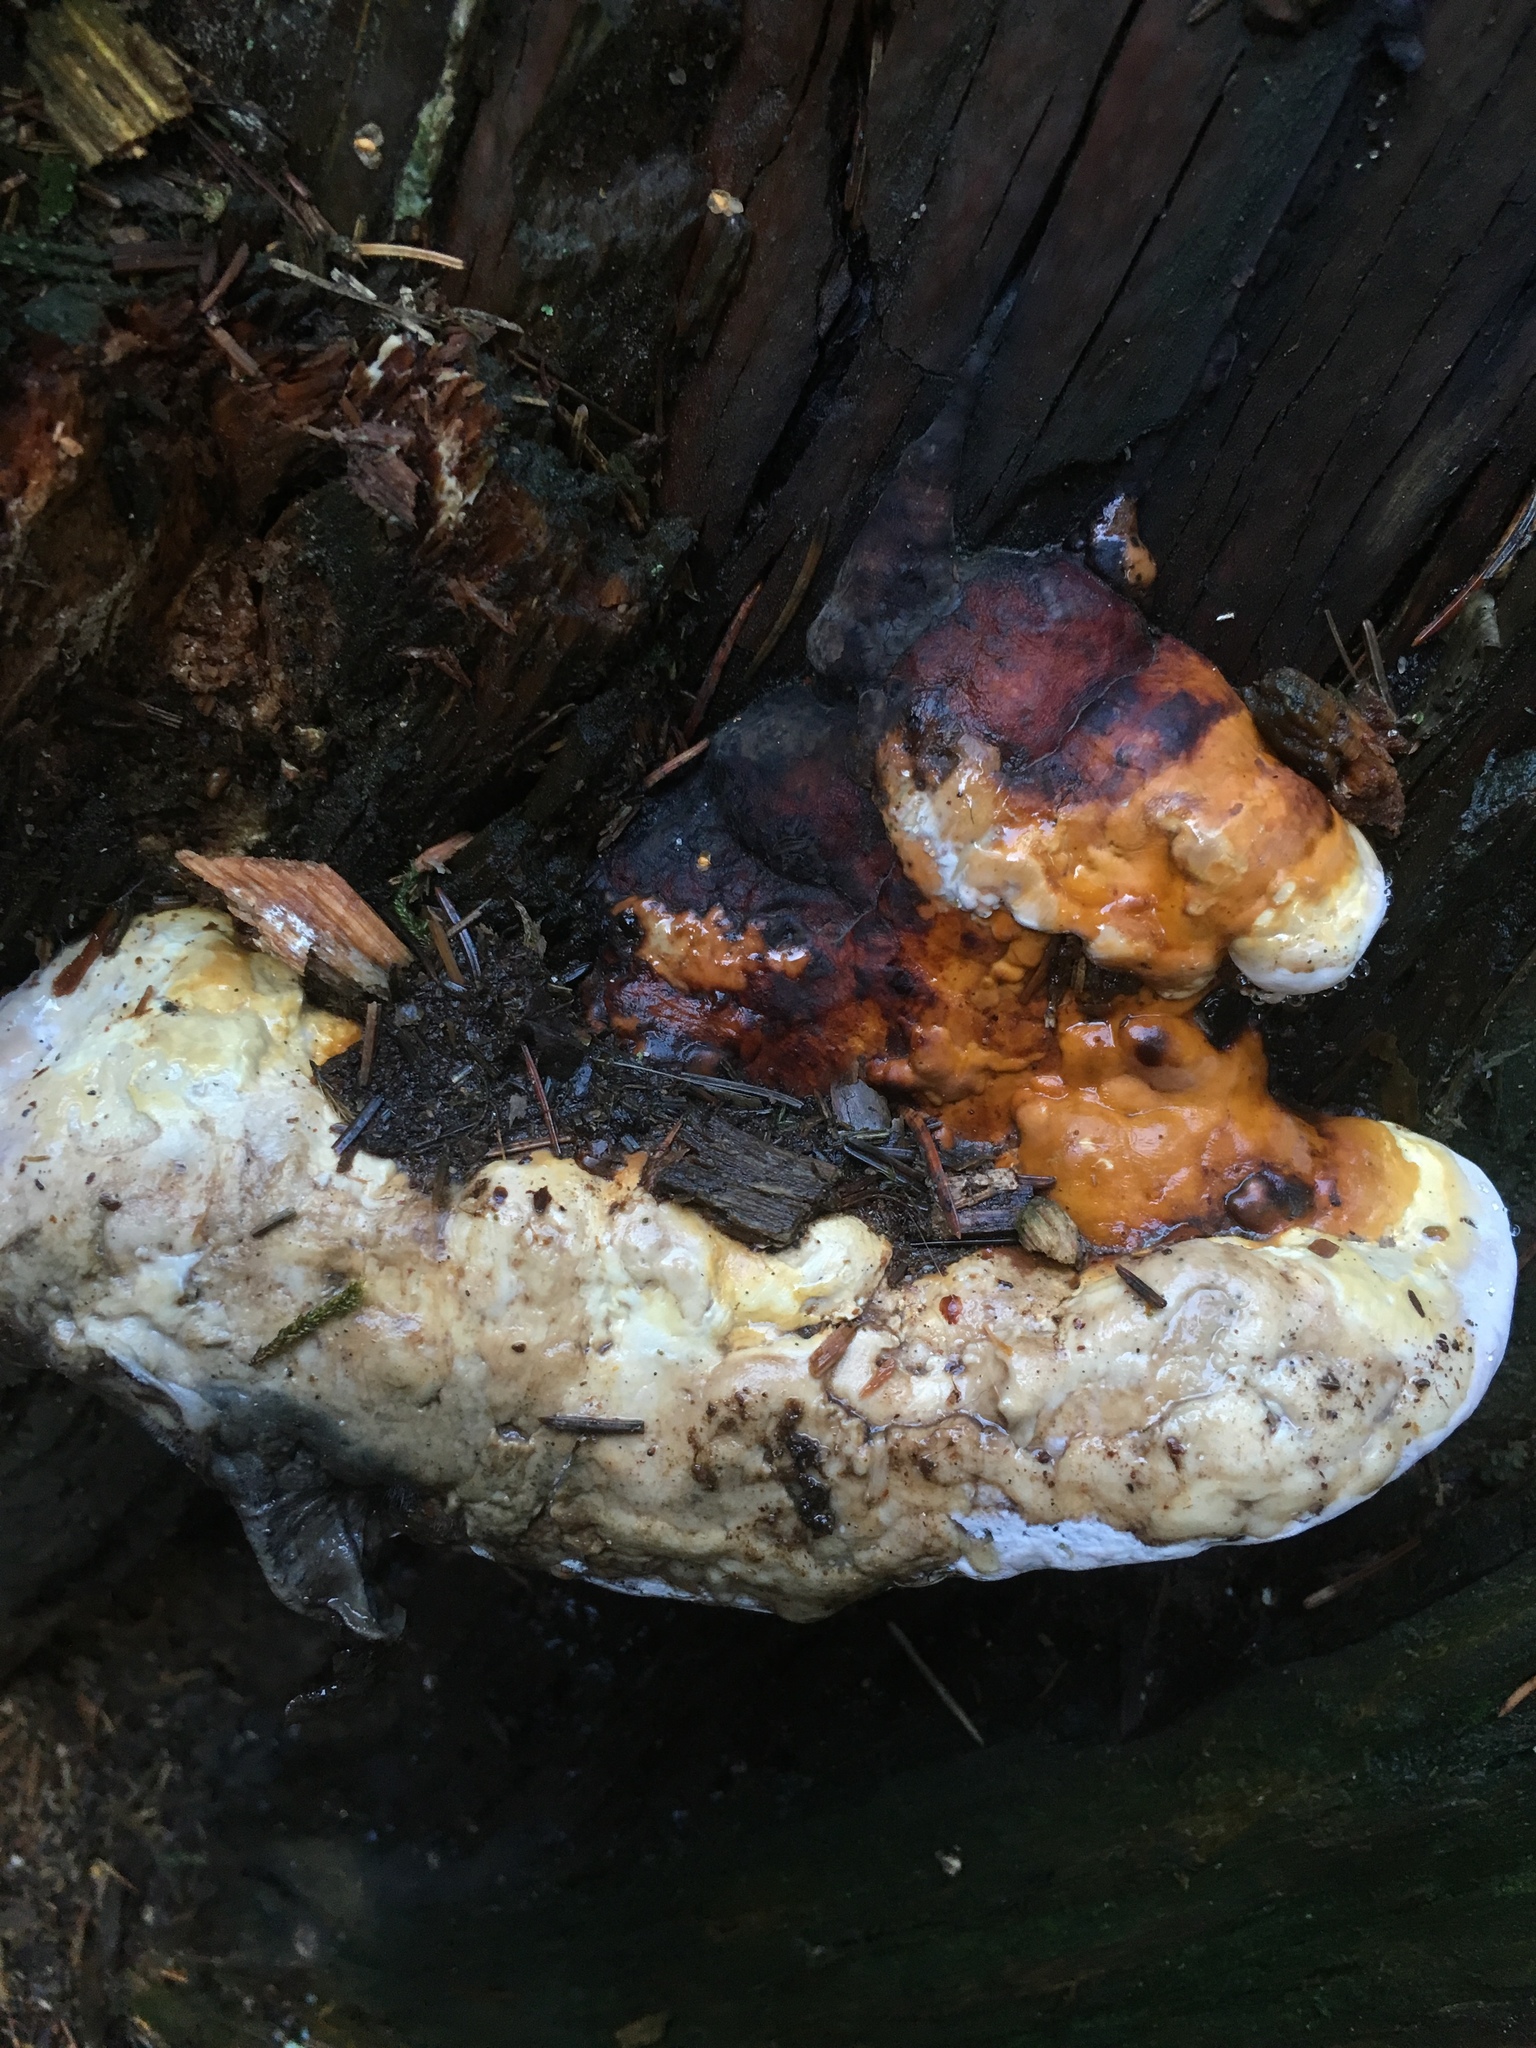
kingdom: Fungi
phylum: Basidiomycota
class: Agaricomycetes
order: Polyporales
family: Fomitopsidaceae
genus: Fomitopsis
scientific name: Fomitopsis pinicola
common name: Red-belted bracket
